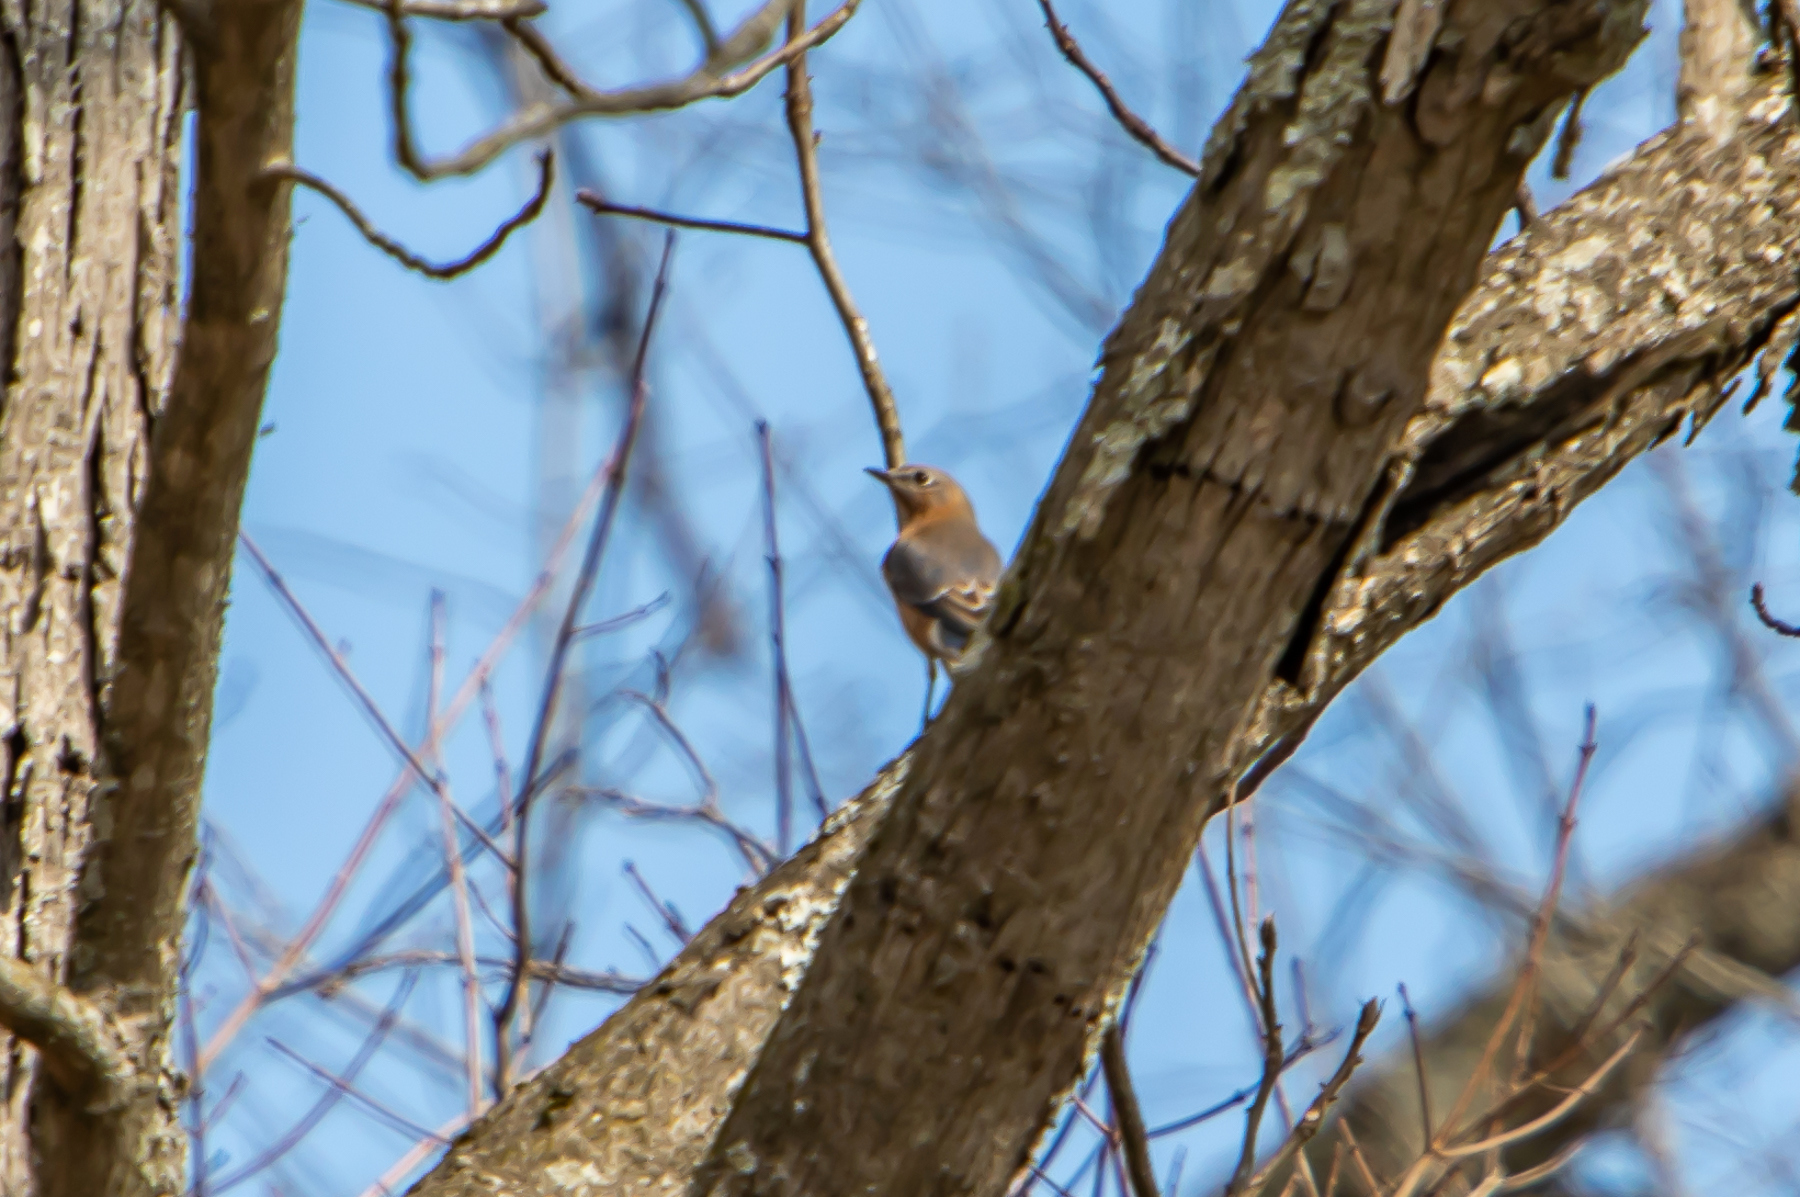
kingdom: Animalia
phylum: Chordata
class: Aves
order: Passeriformes
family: Turdidae
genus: Sialia
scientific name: Sialia sialis
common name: Eastern bluebird
